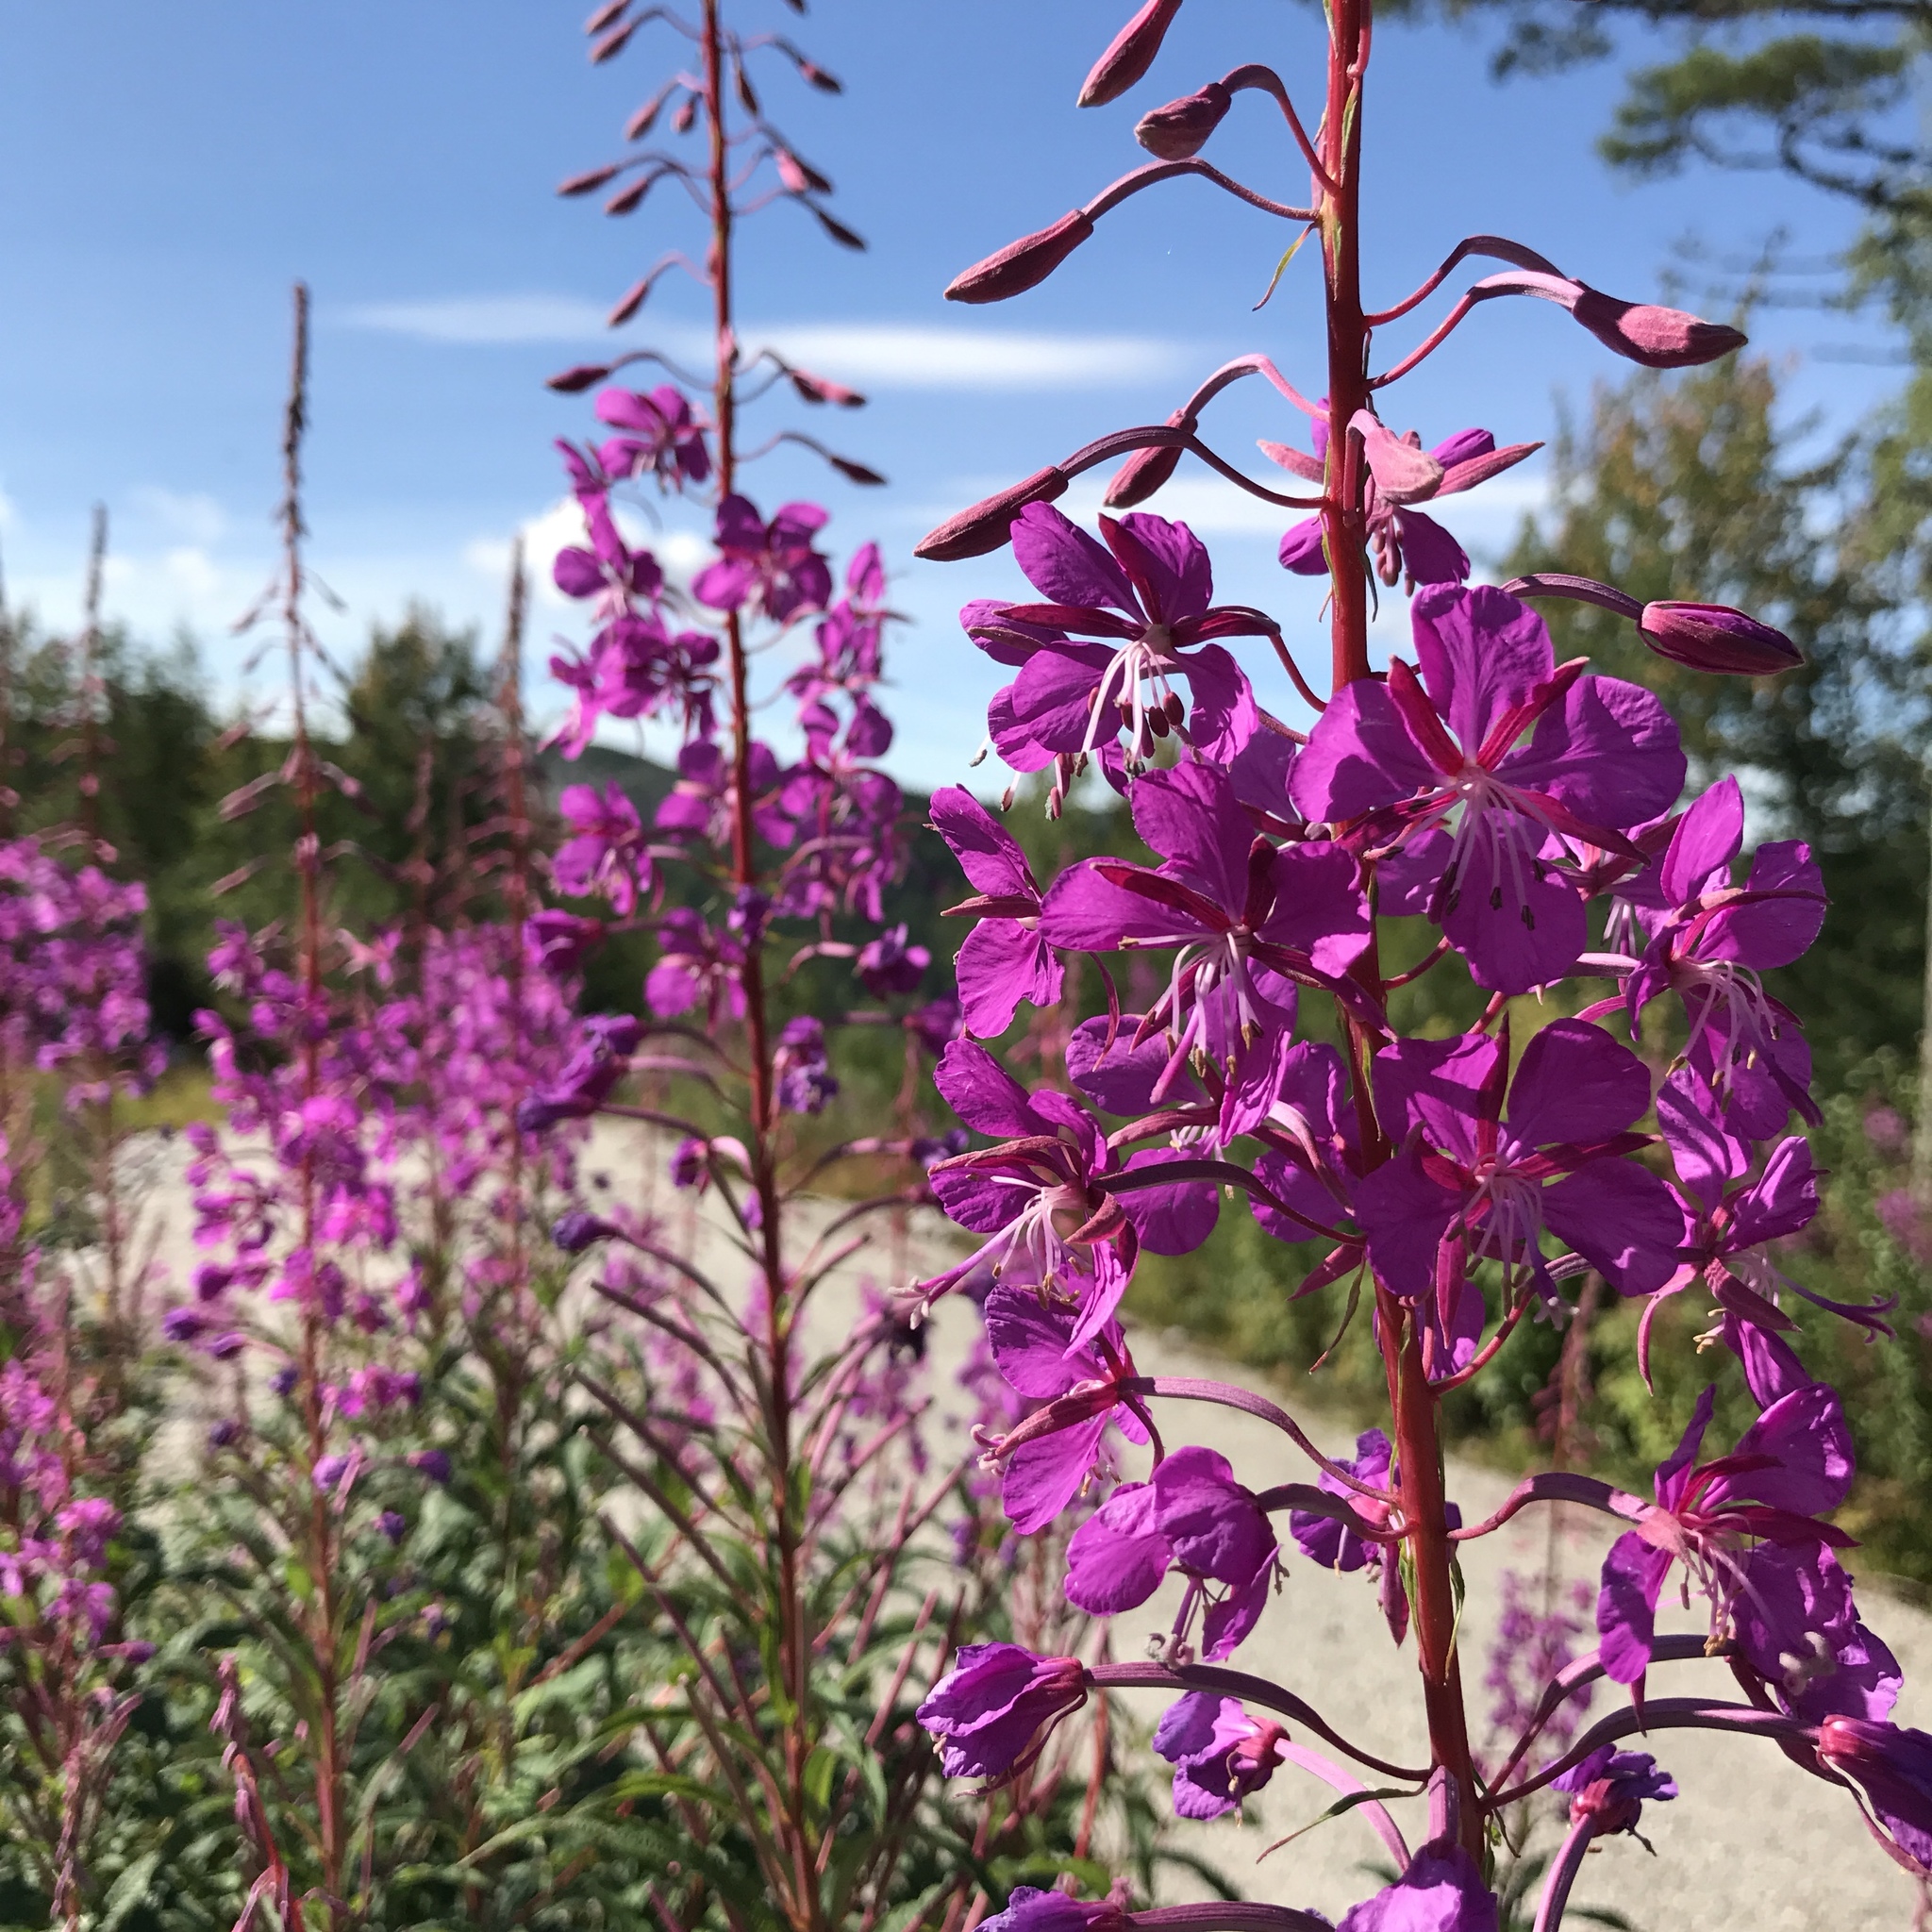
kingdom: Plantae
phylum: Tracheophyta
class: Magnoliopsida
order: Myrtales
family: Onagraceae
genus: Chamaenerion
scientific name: Chamaenerion angustifolium
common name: Fireweed
